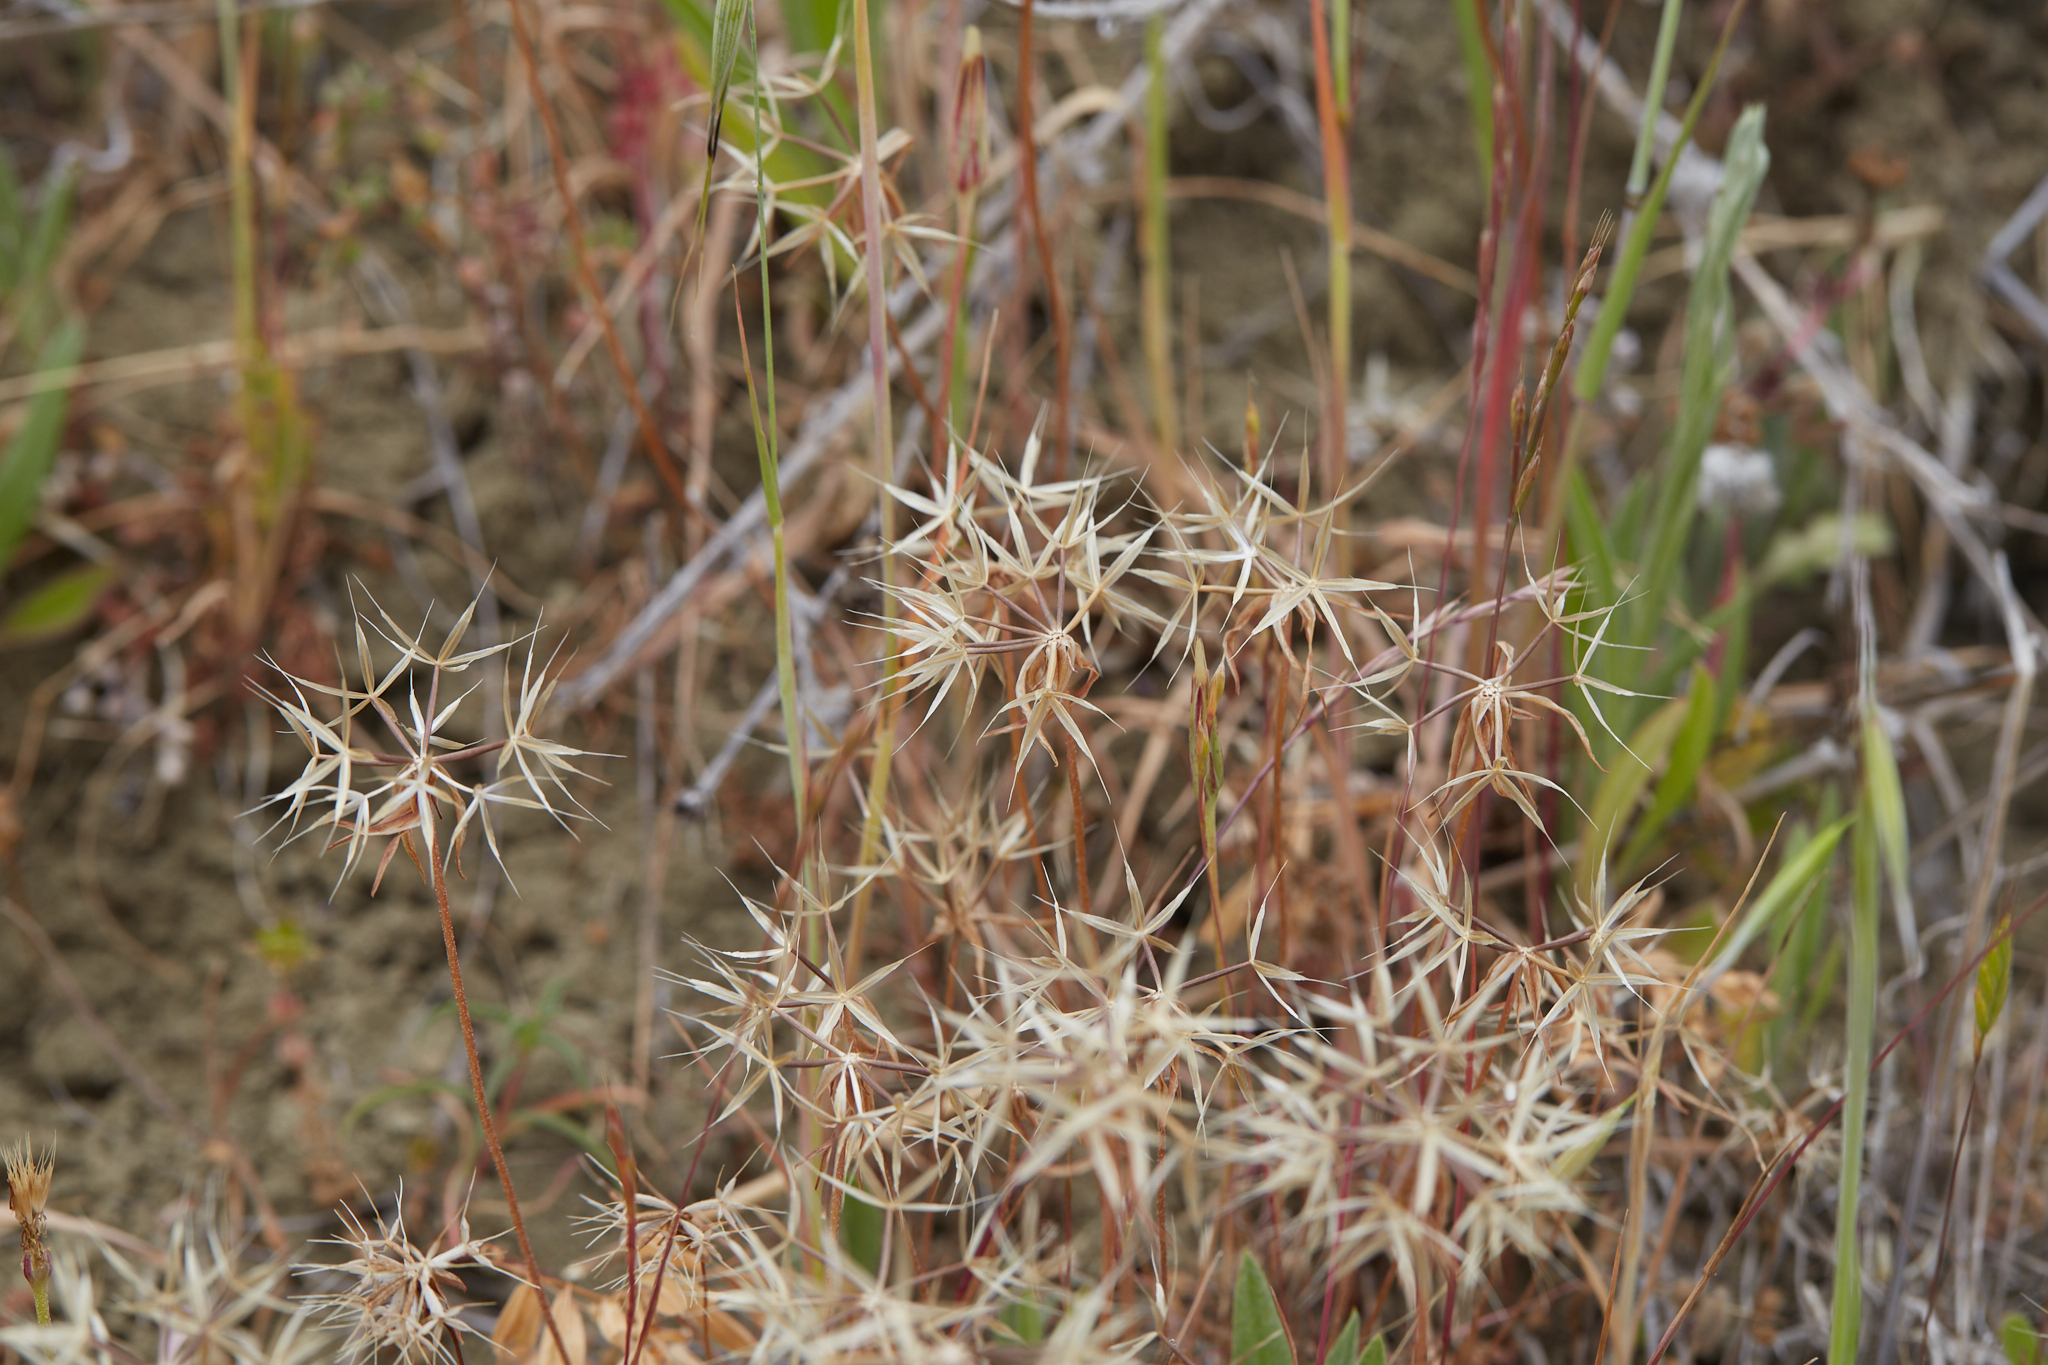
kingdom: Plantae
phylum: Tracheophyta
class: Magnoliopsida
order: Asterales
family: Asteraceae
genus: Microseris
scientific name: Microseris heterocarpa
